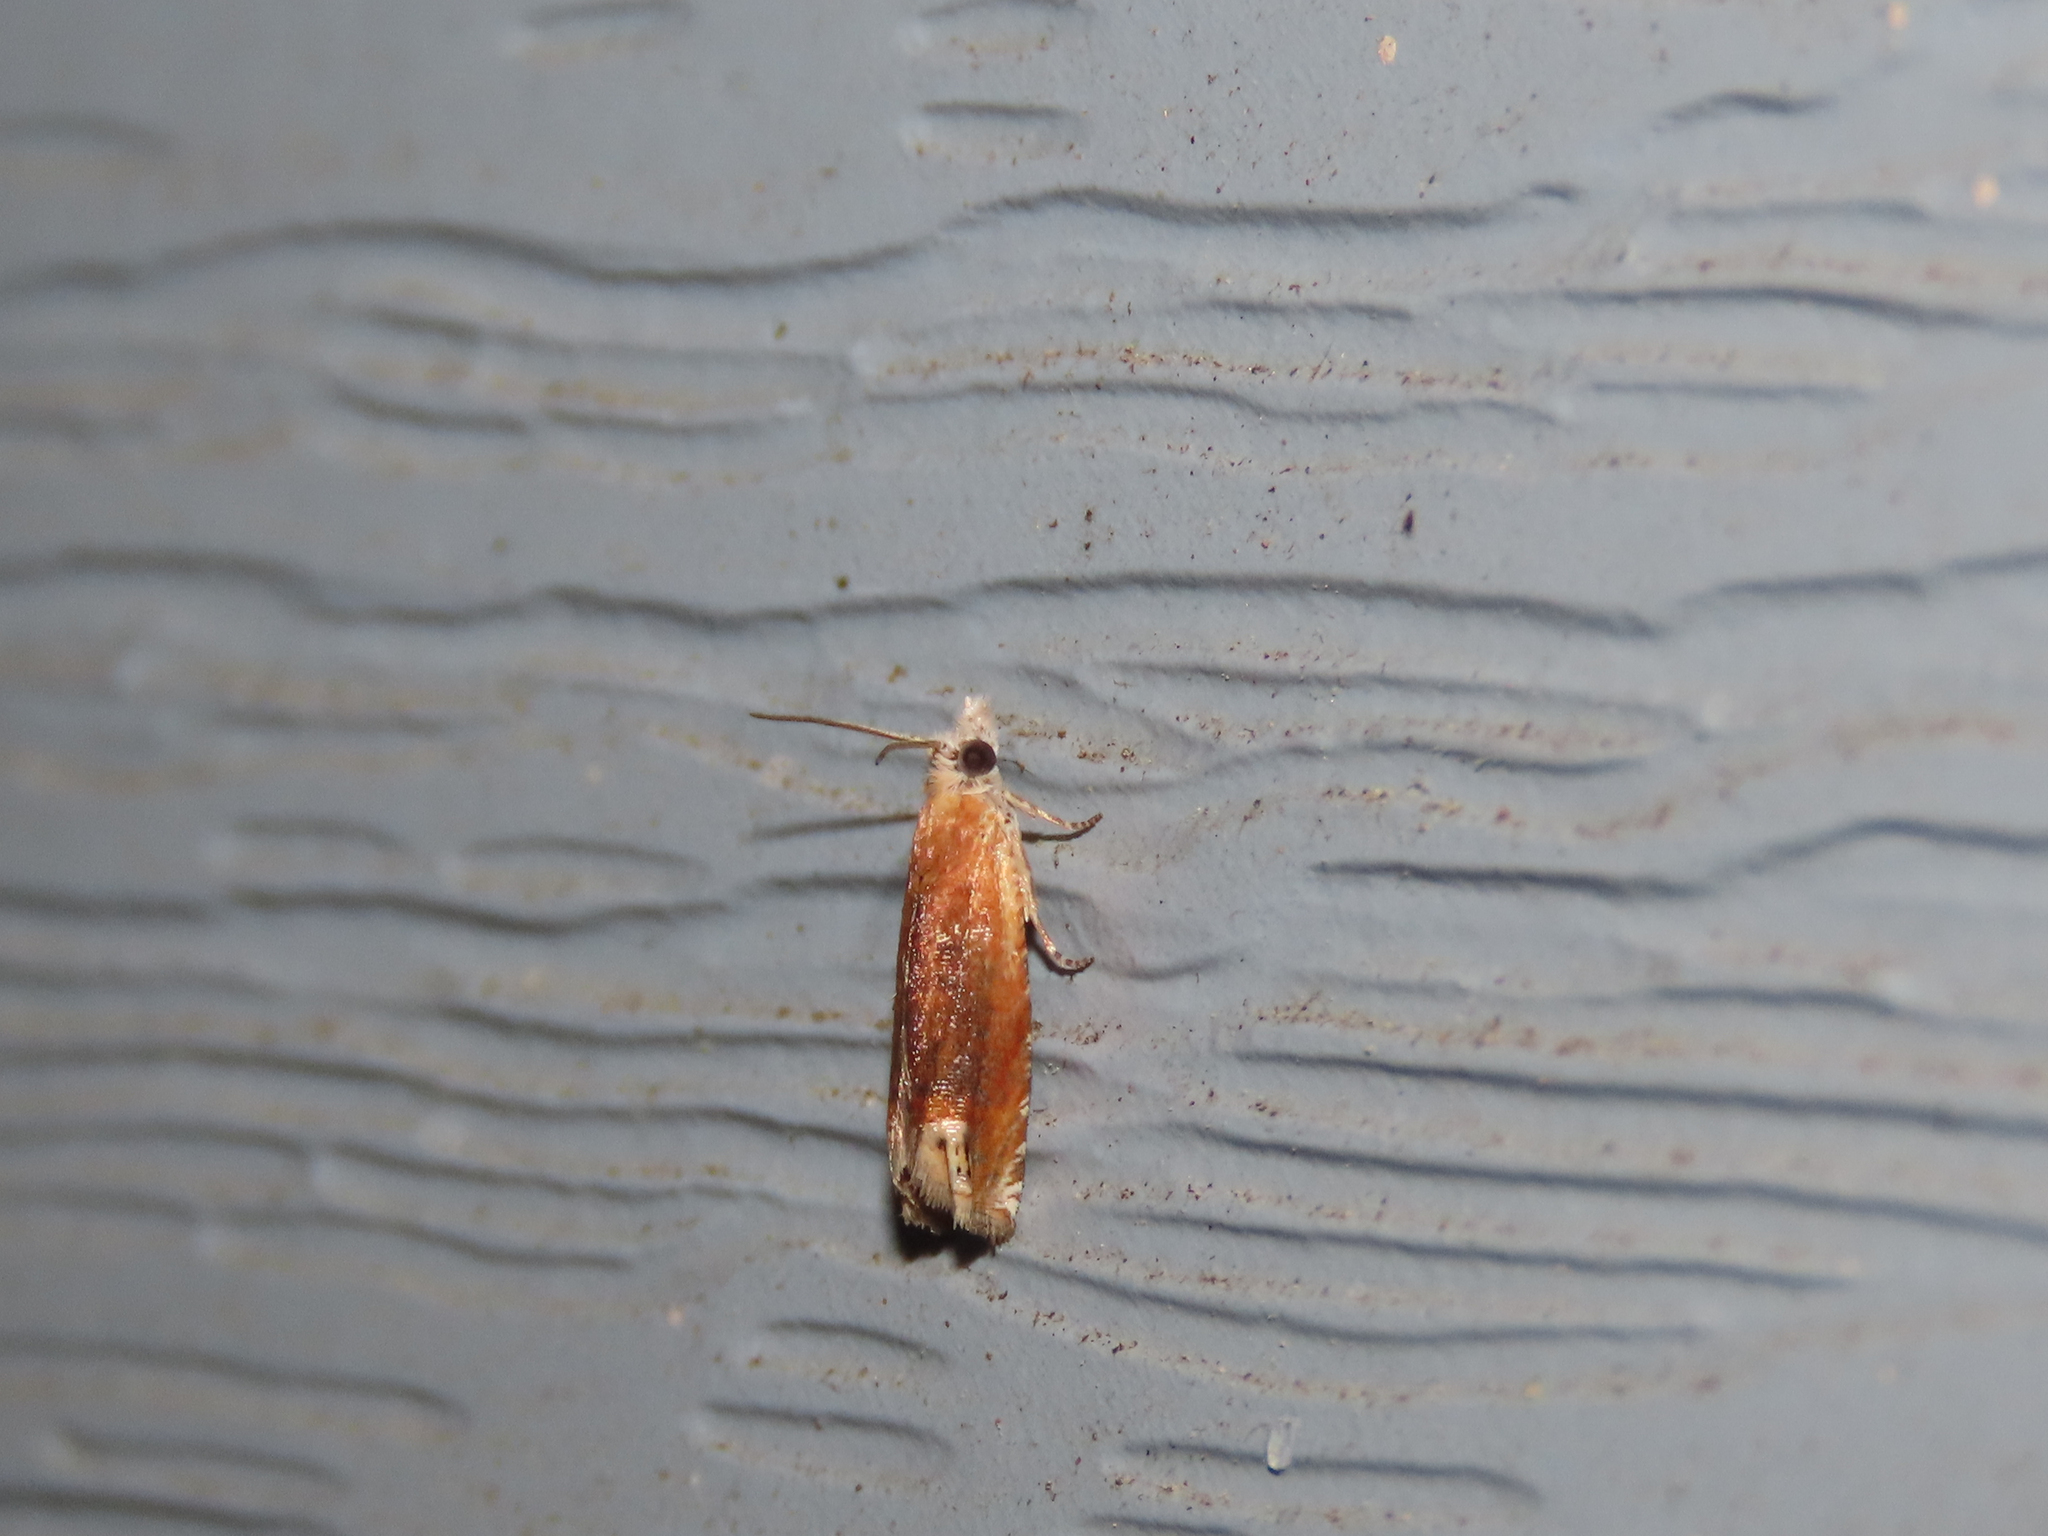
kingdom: Animalia
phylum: Arthropoda
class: Insecta
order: Lepidoptera
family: Tortricidae
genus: Eucosma
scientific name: Eucosma raracana
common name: Reddish eucosma moth
